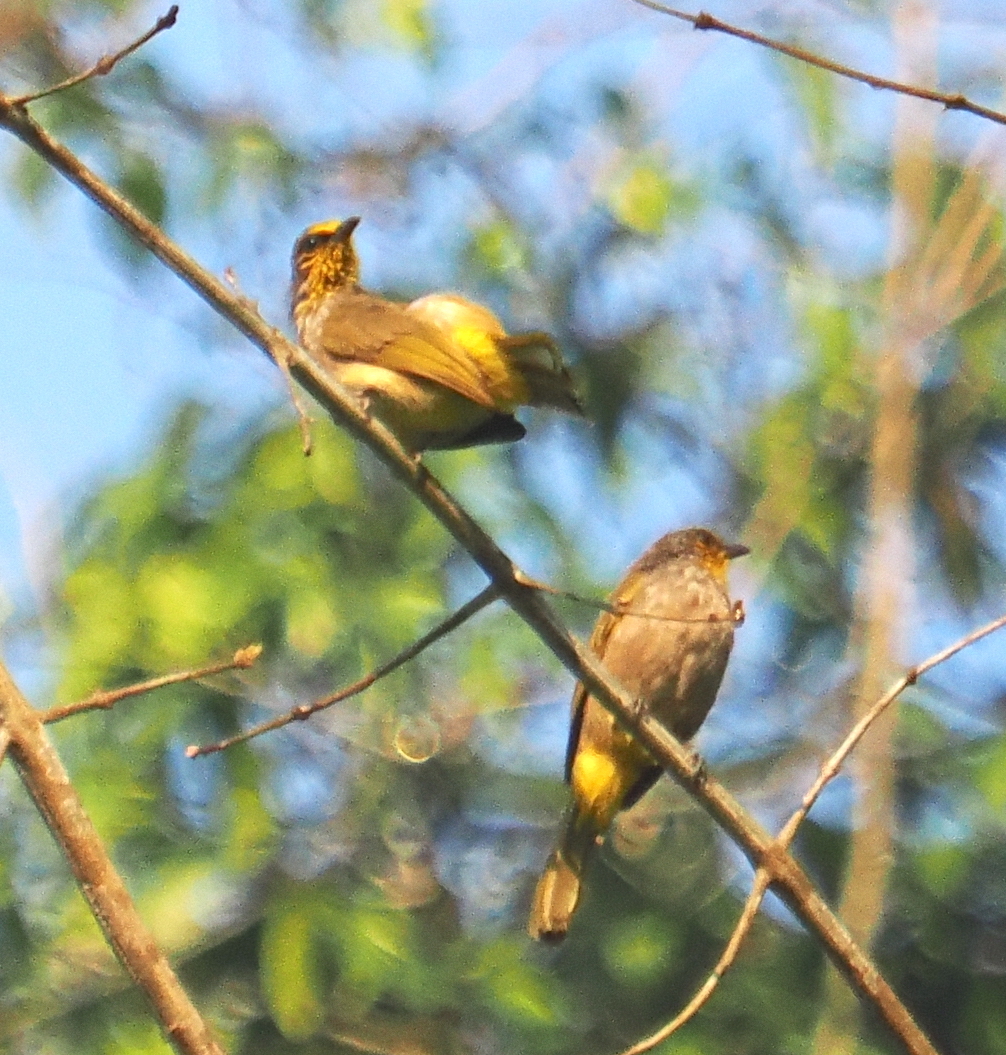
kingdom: Animalia
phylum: Chordata
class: Aves
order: Passeriformes
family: Pycnonotidae
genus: Pycnonotus
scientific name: Pycnonotus finlaysoni
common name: Stripe-throated bulbul
